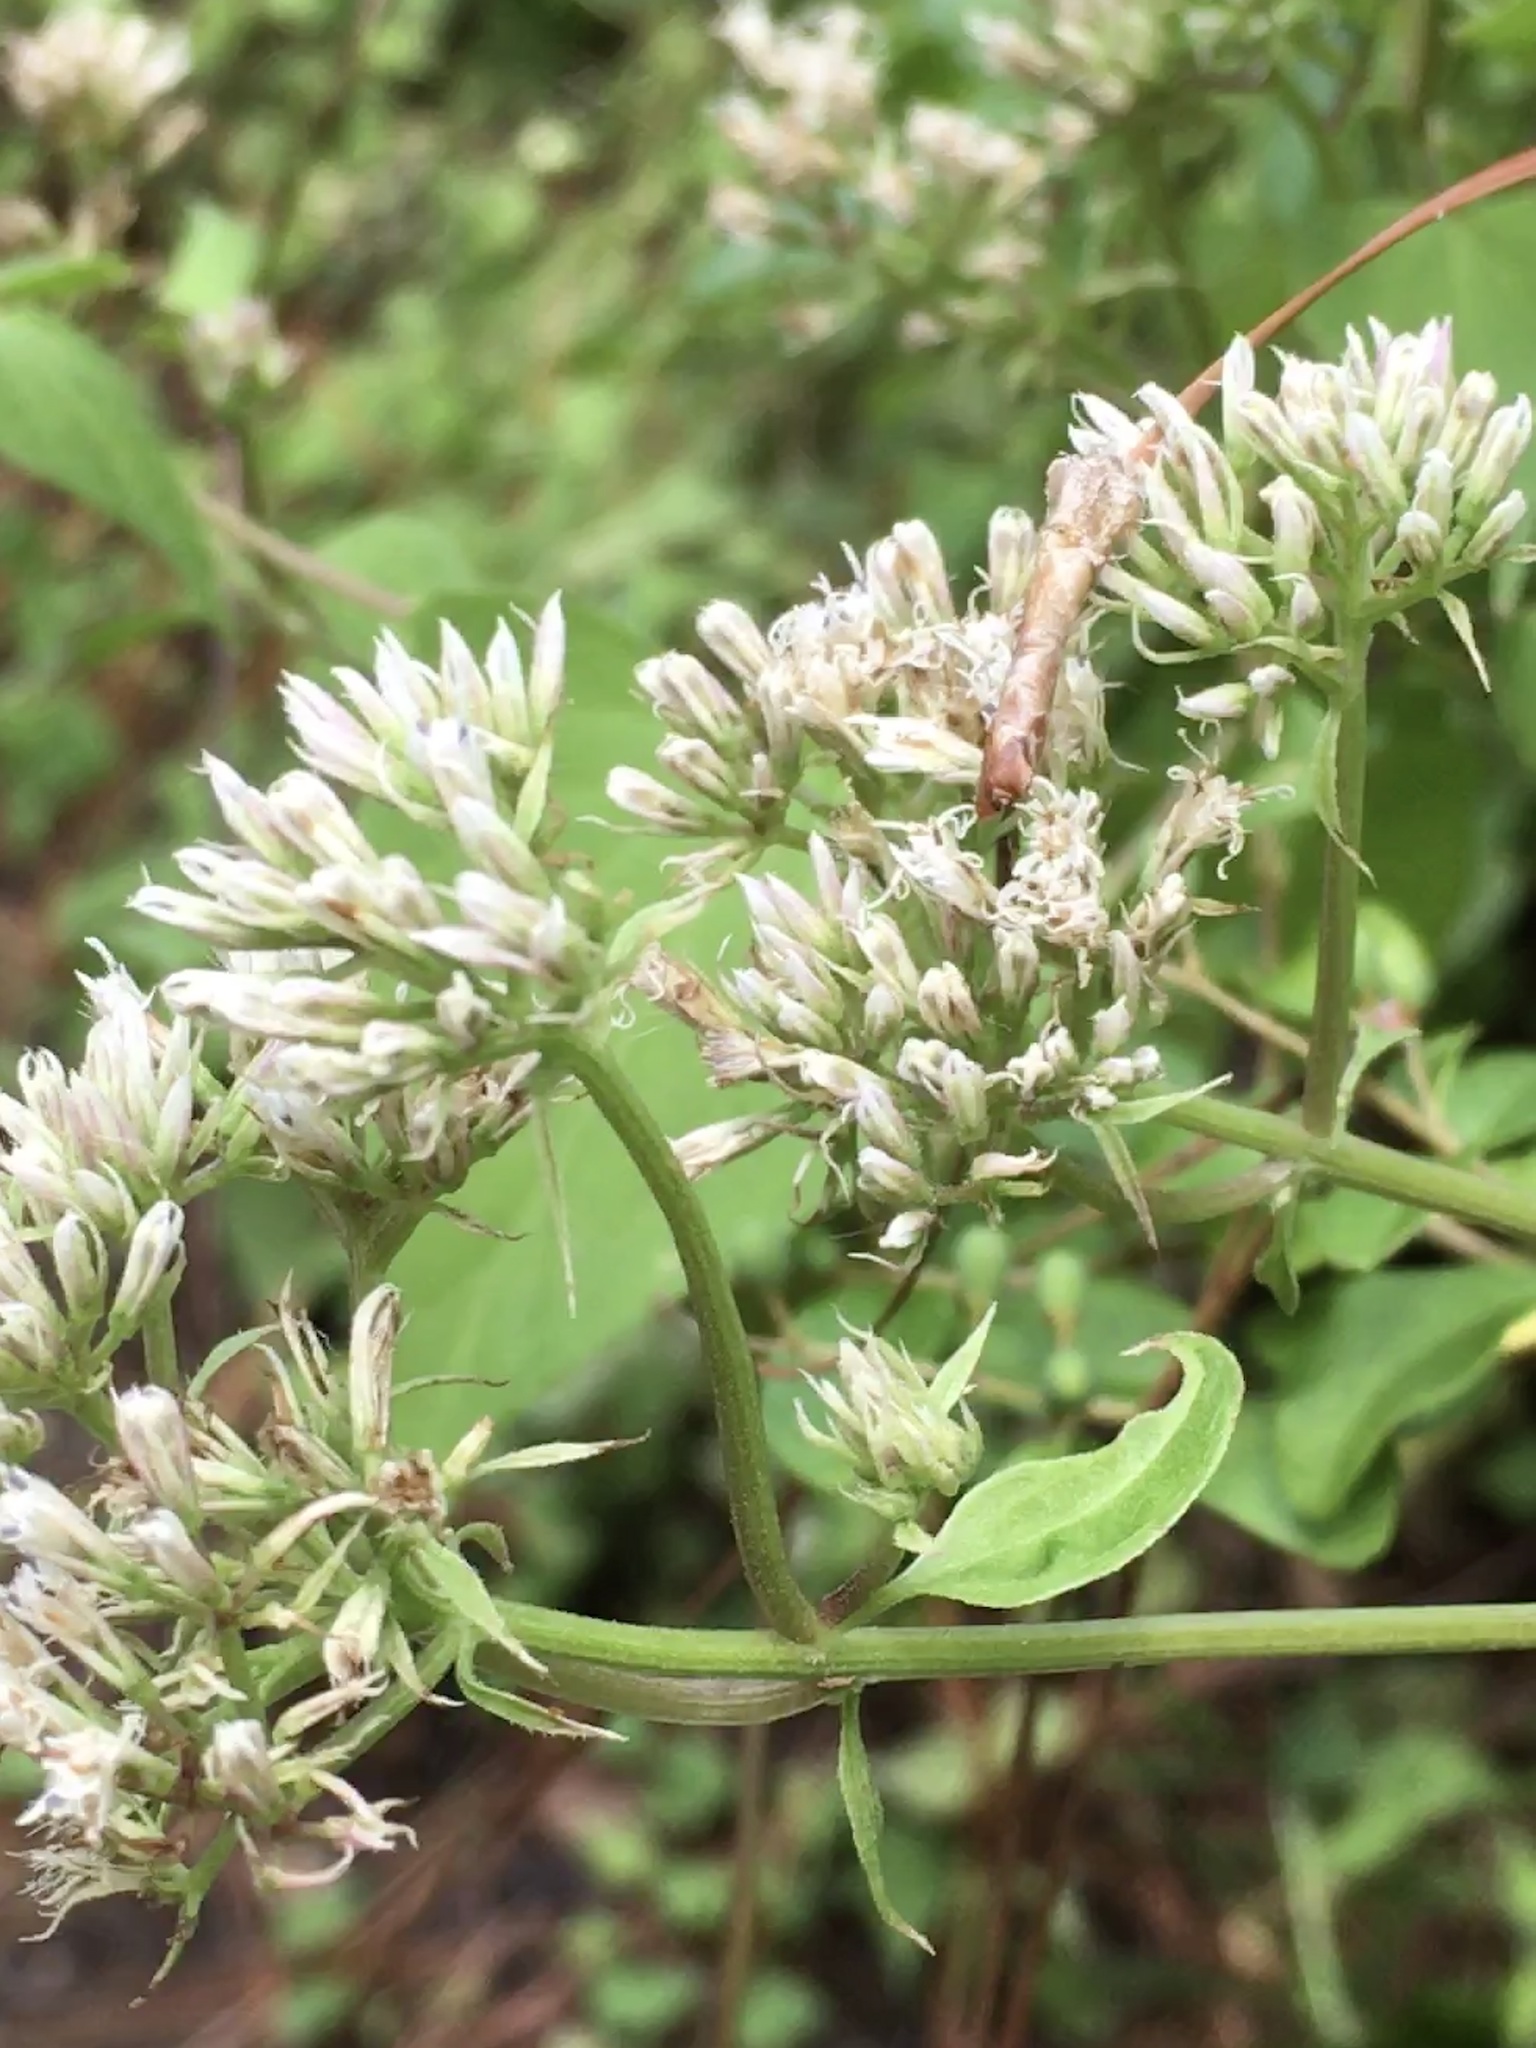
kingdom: Plantae
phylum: Tracheophyta
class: Magnoliopsida
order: Asterales
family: Asteraceae
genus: Mikania
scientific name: Mikania scandens
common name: Climbing hempvine
